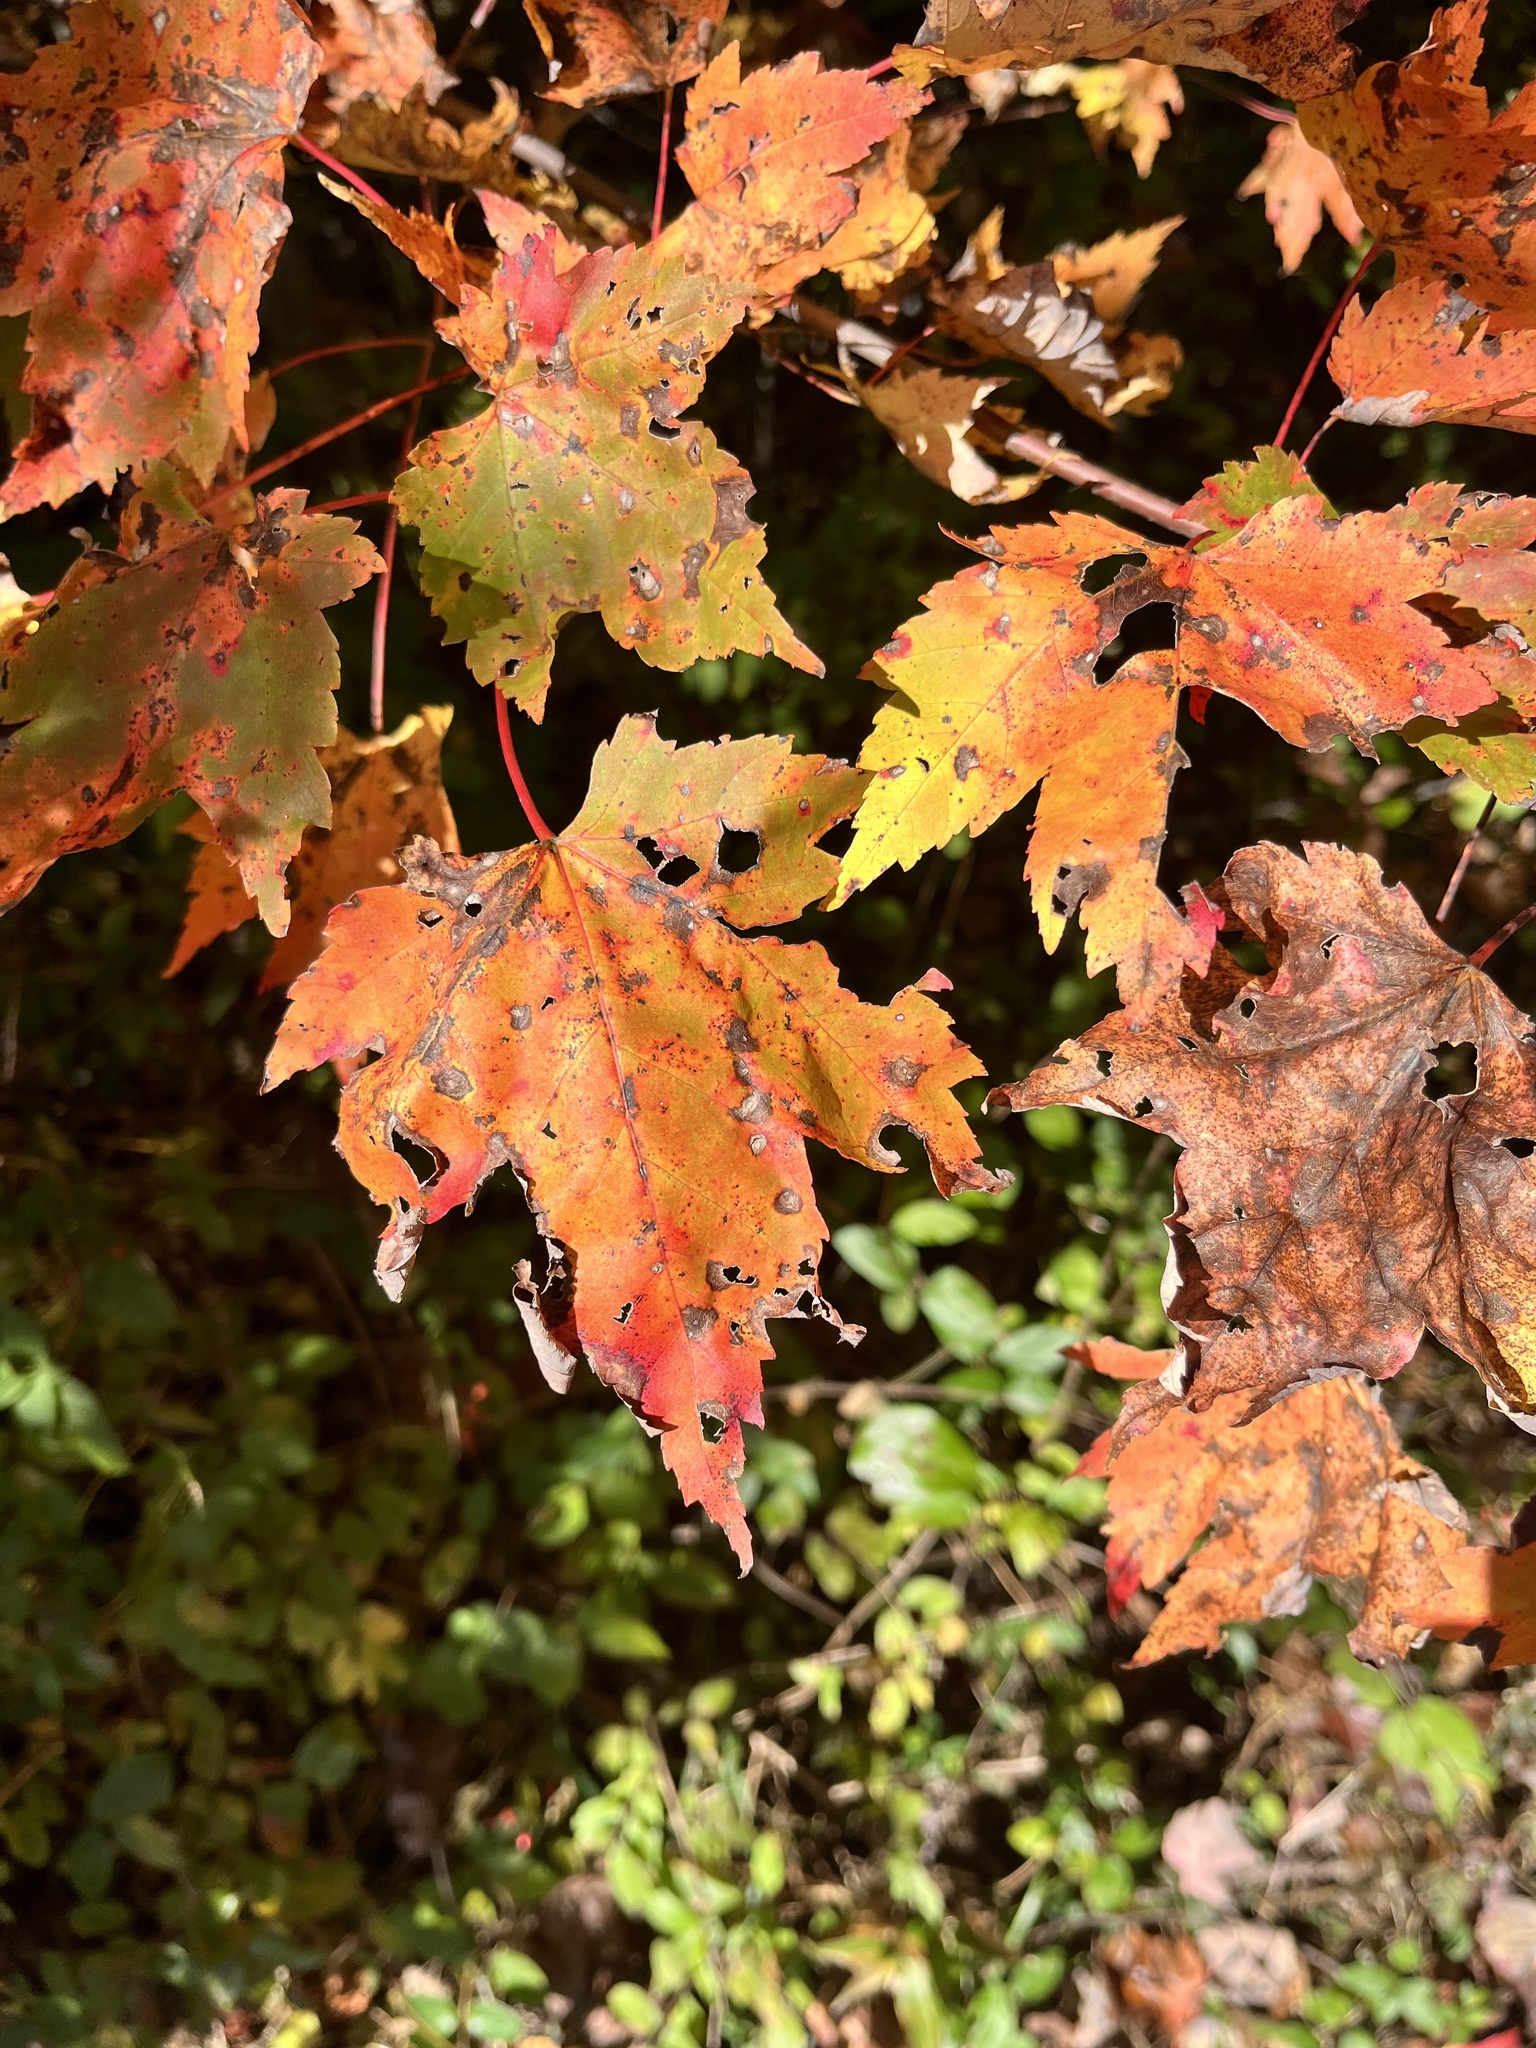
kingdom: Plantae
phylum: Tracheophyta
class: Magnoliopsida
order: Sapindales
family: Sapindaceae
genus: Acer
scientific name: Acer rubrum
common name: Red maple
